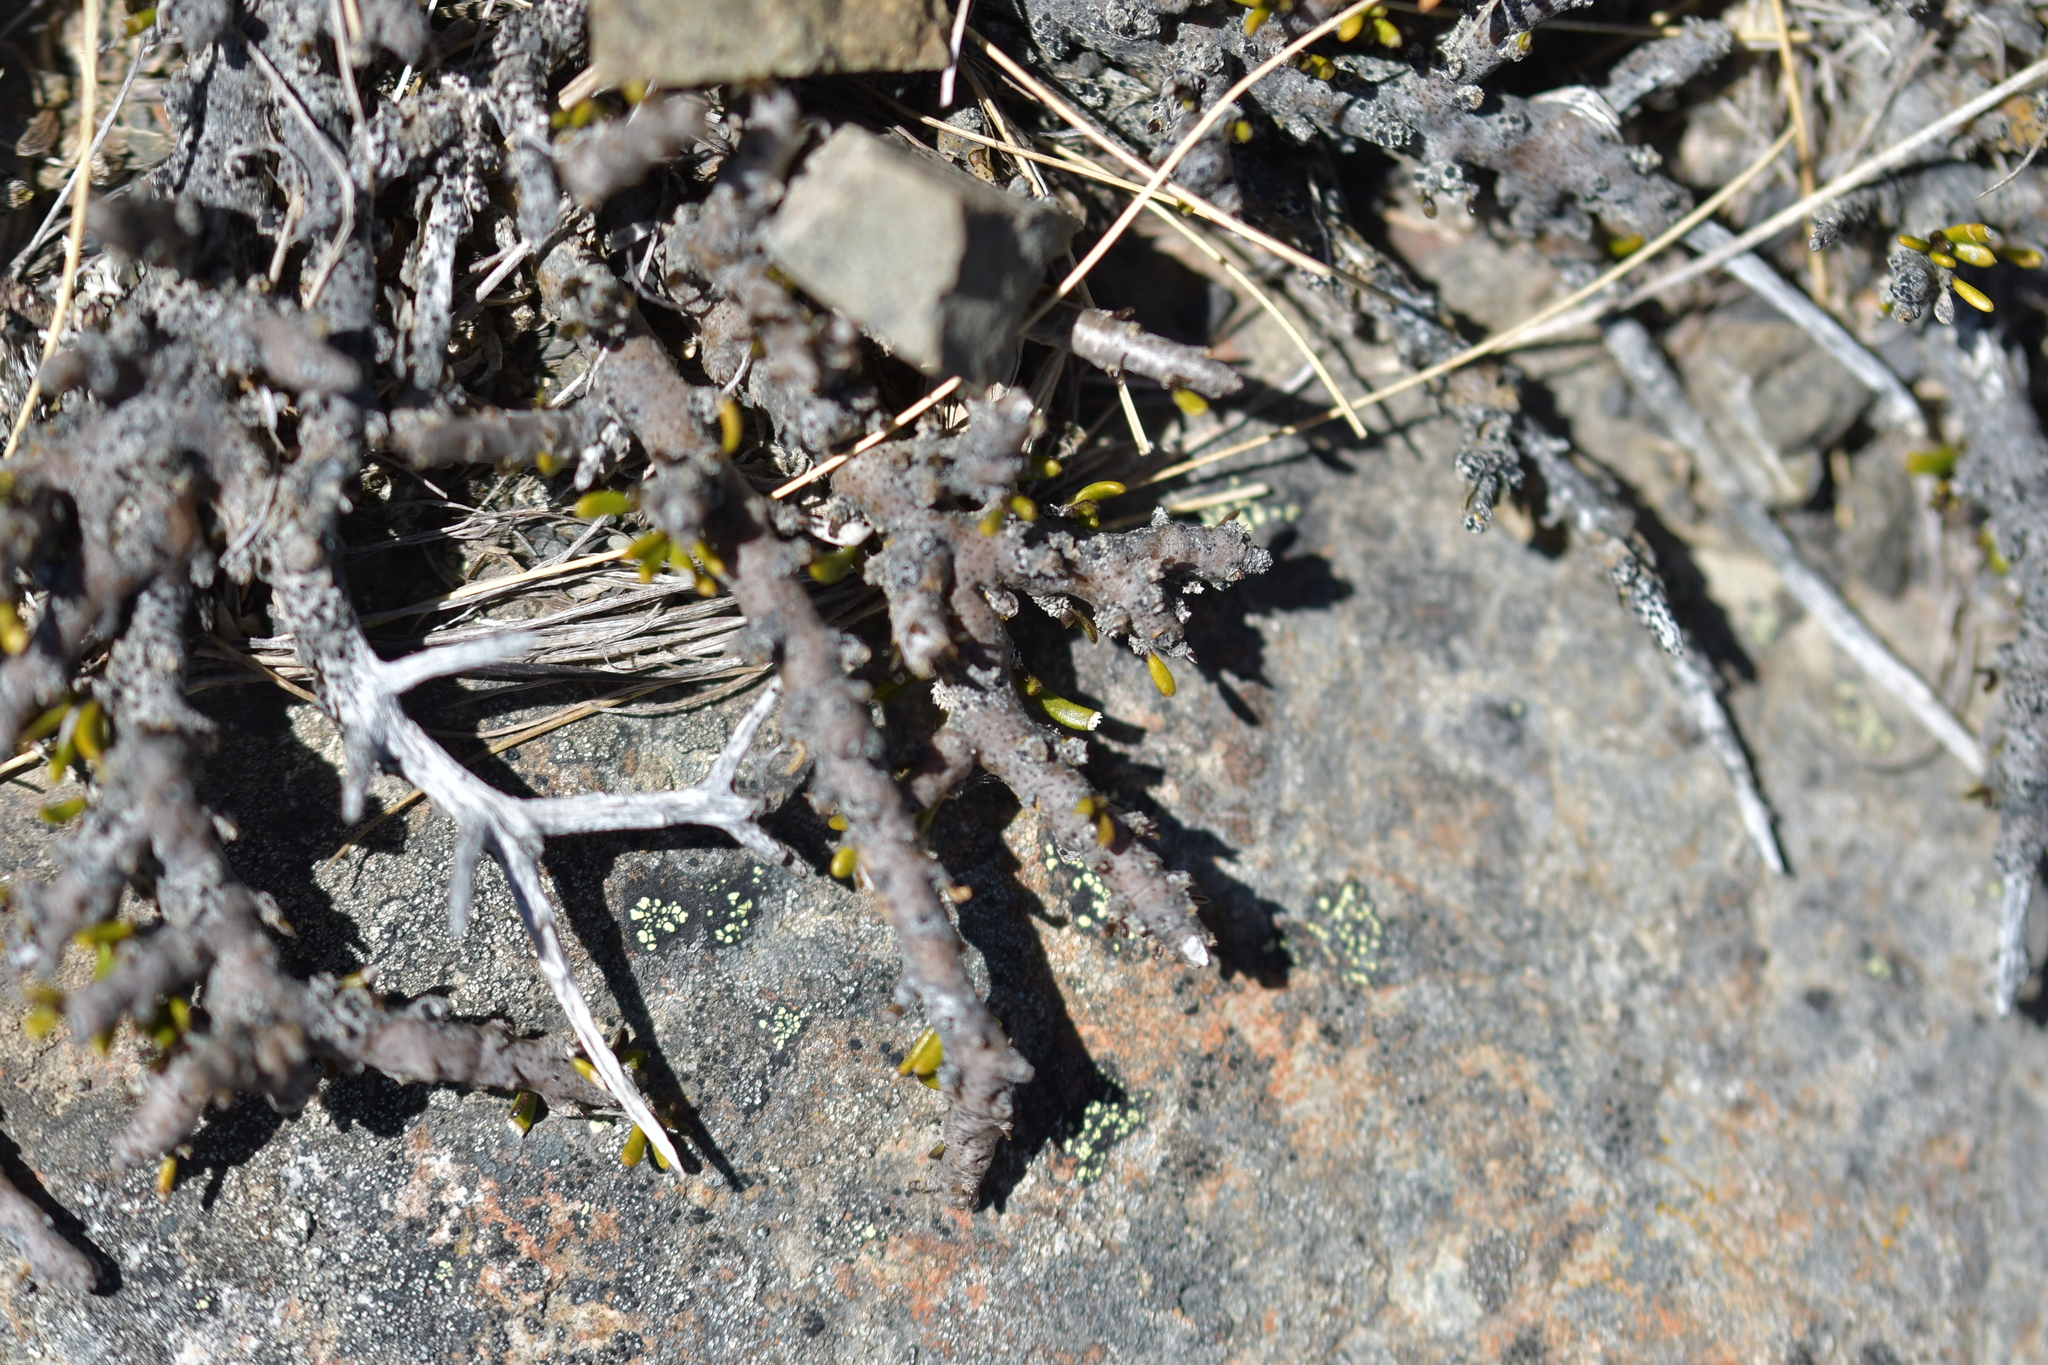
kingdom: Plantae
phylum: Tracheophyta
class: Magnoliopsida
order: Malpighiales
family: Violaceae
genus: Melicytus
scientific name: Melicytus alpinus
